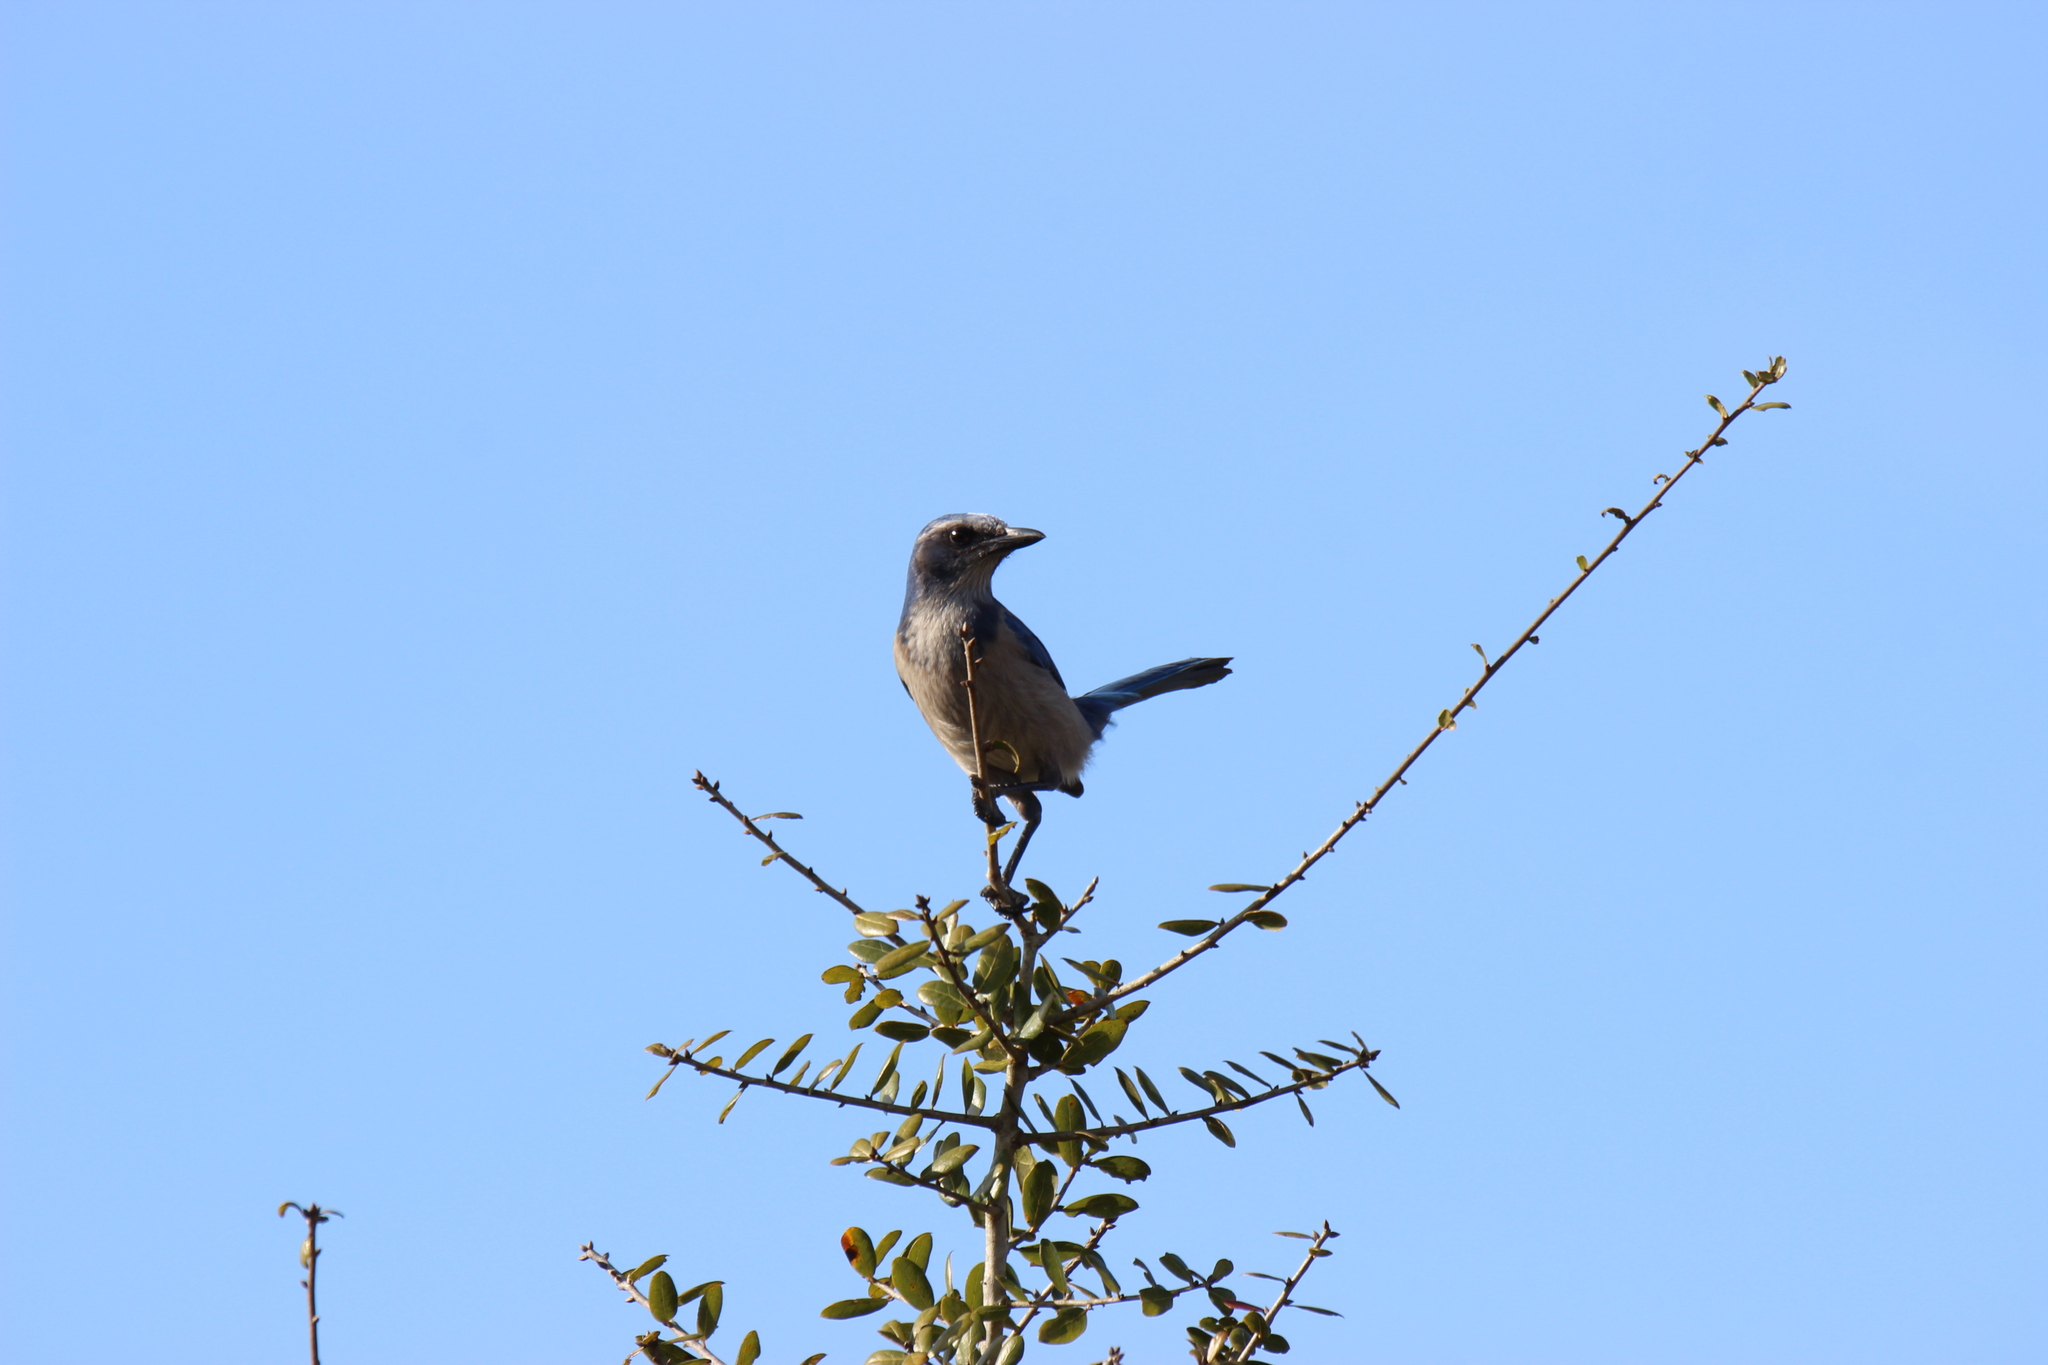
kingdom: Animalia
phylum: Chordata
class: Aves
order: Passeriformes
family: Corvidae
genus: Aphelocoma
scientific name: Aphelocoma coerulescens
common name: Florida scrub jay
